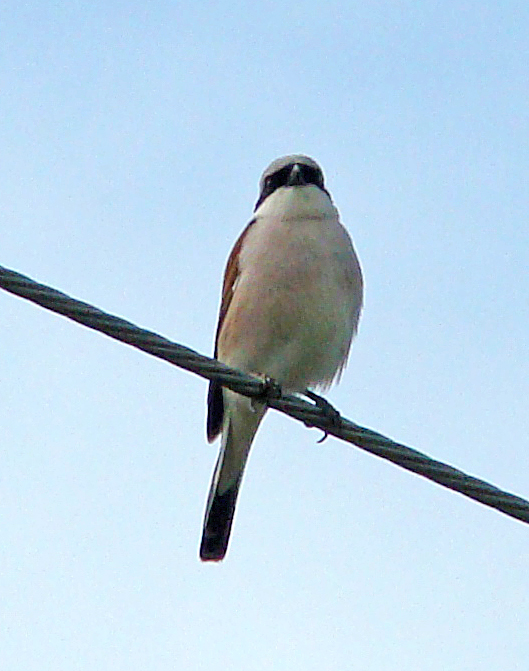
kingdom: Animalia
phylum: Chordata
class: Aves
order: Passeriformes
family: Laniidae
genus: Lanius
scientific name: Lanius collurio
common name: Red-backed shrike
